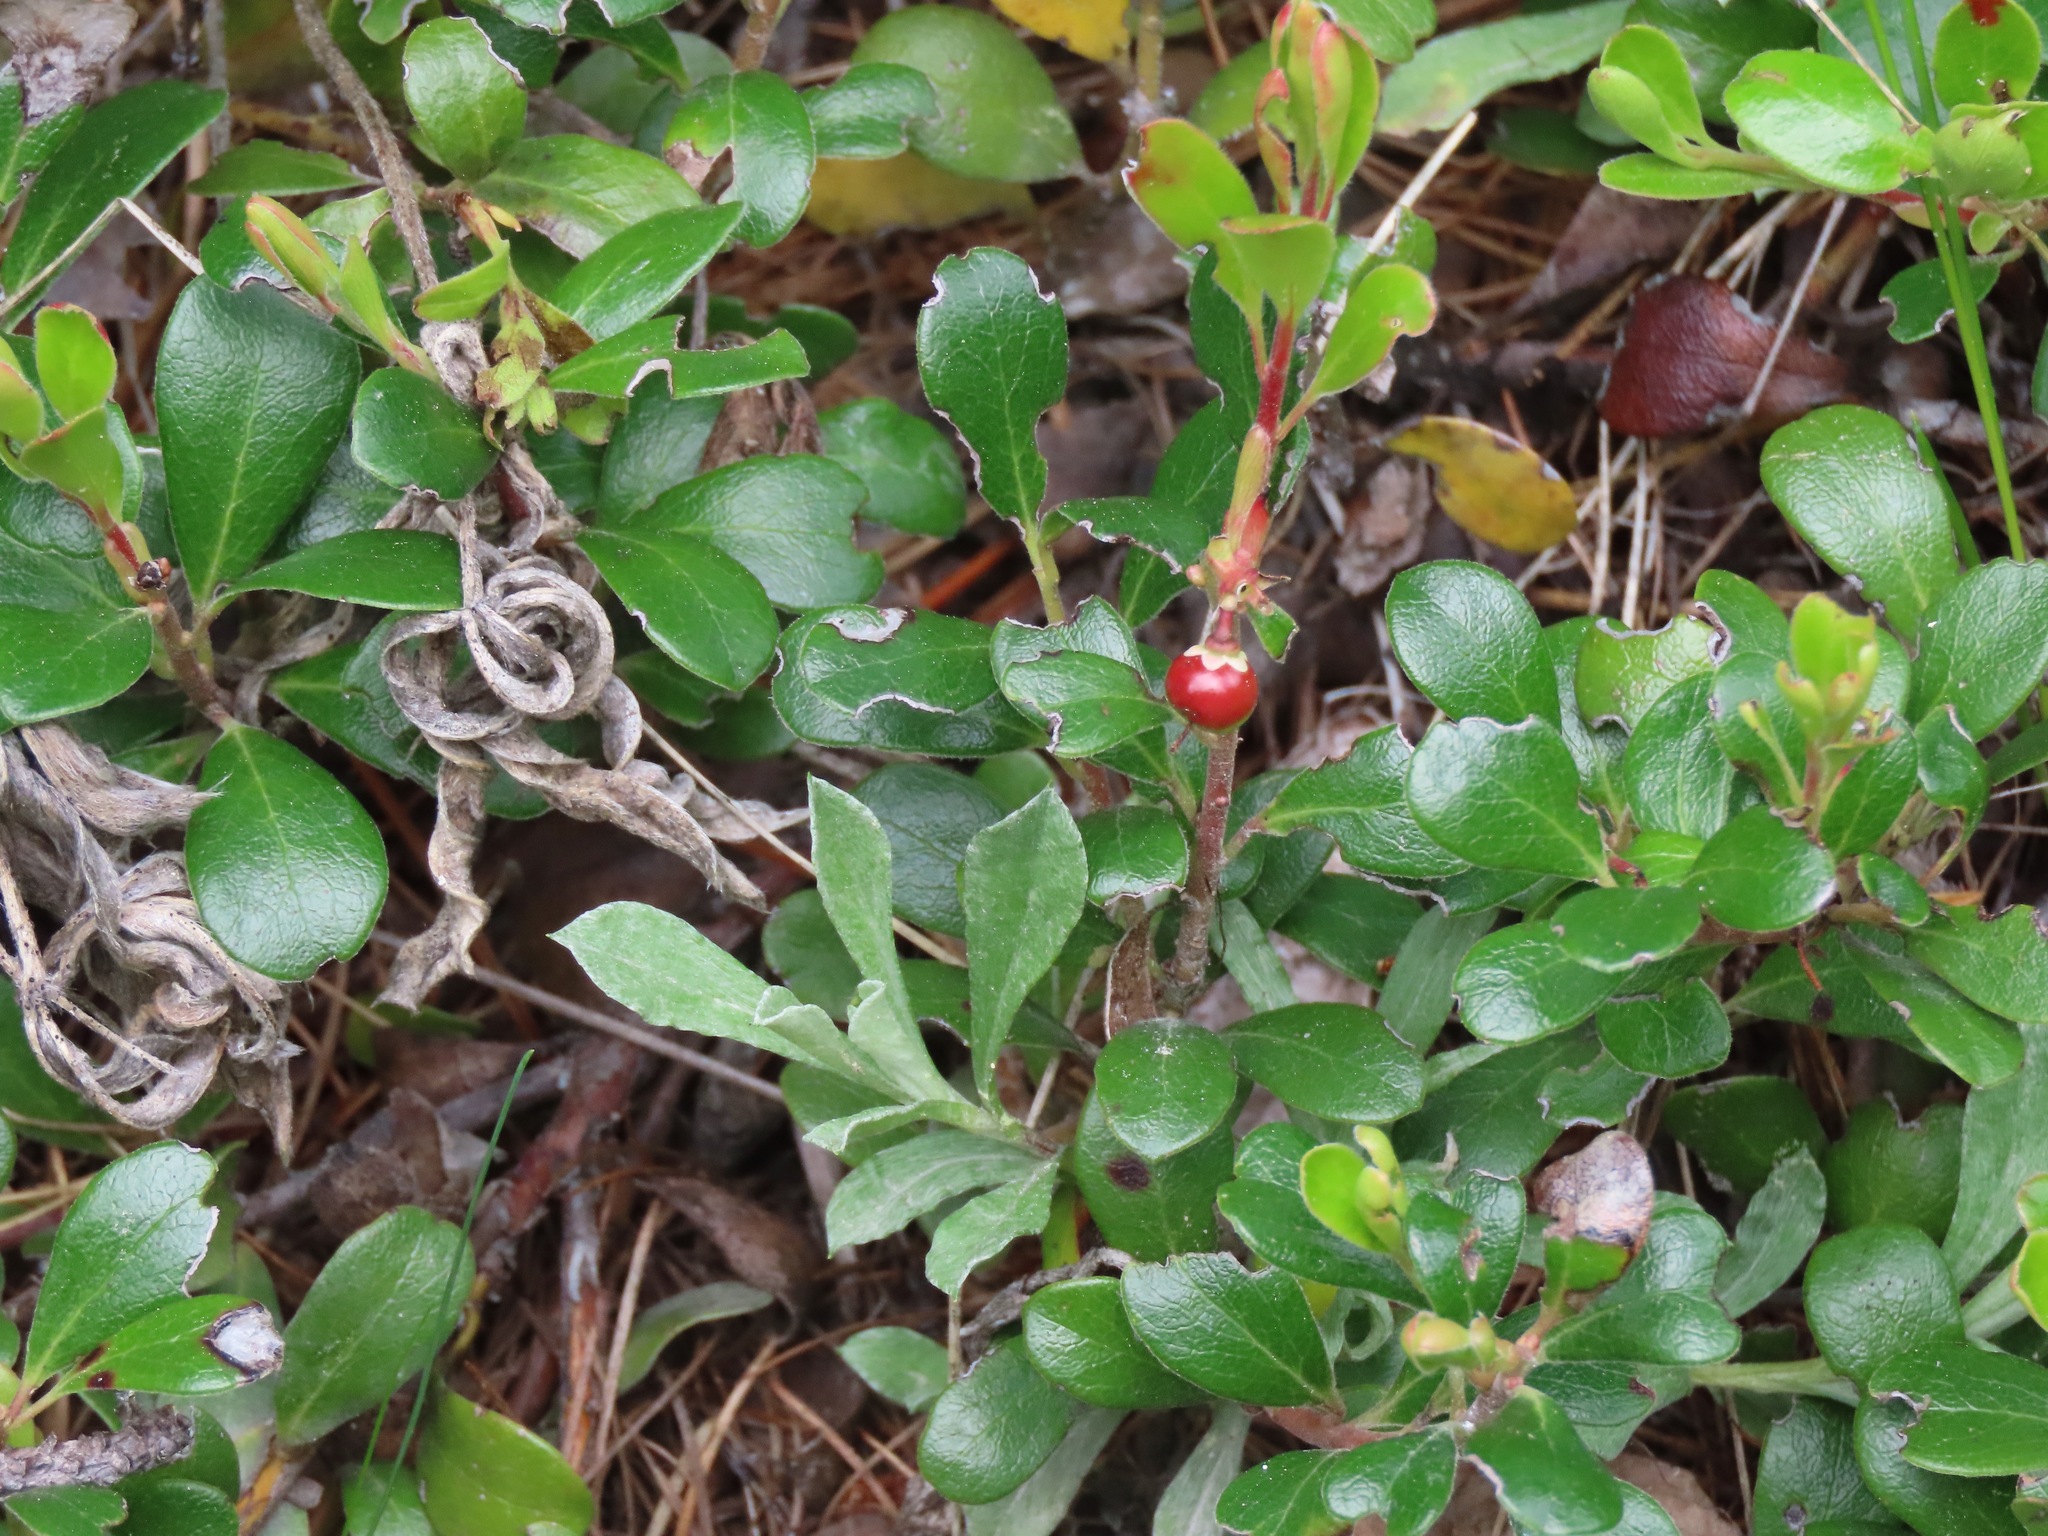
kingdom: Plantae
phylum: Tracheophyta
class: Magnoliopsida
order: Ericales
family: Ericaceae
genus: Arctostaphylos
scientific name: Arctostaphylos uva-ursi
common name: Bearberry
